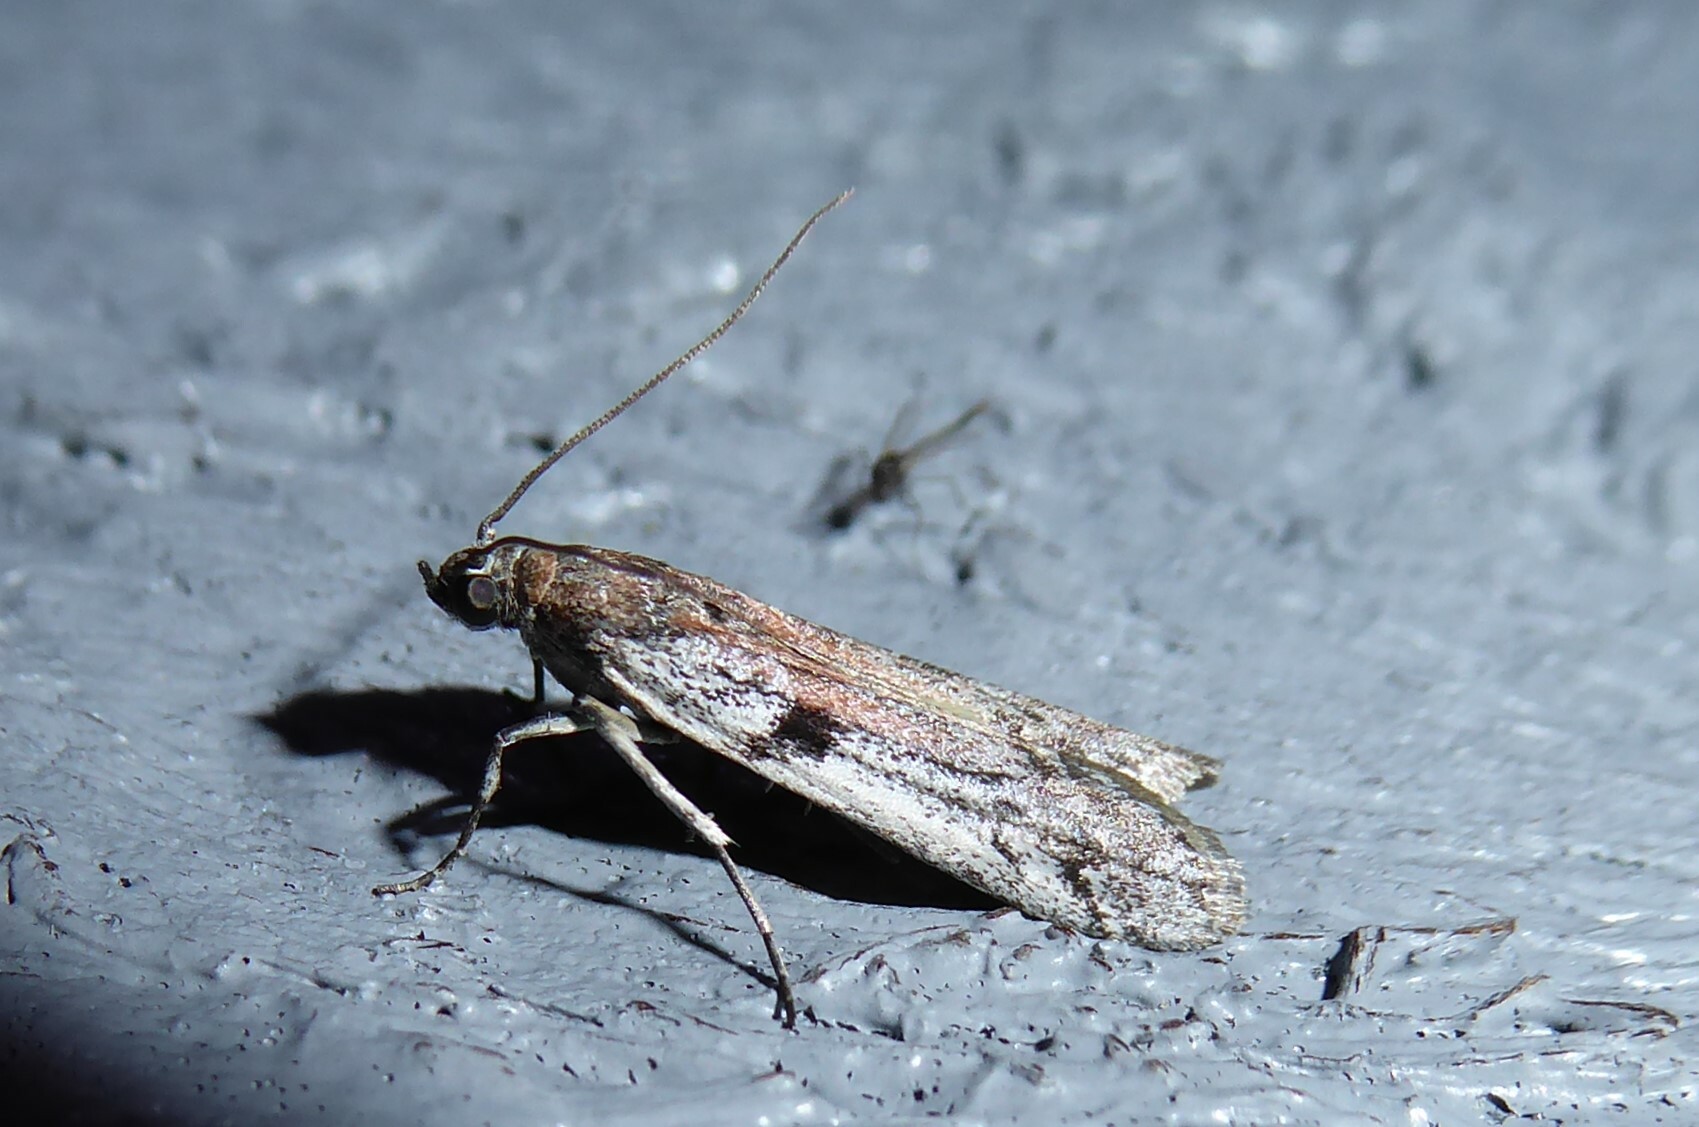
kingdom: Animalia
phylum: Arthropoda
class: Insecta
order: Lepidoptera
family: Pyralidae
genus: Patagoniodes
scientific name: Patagoniodes farinaria
